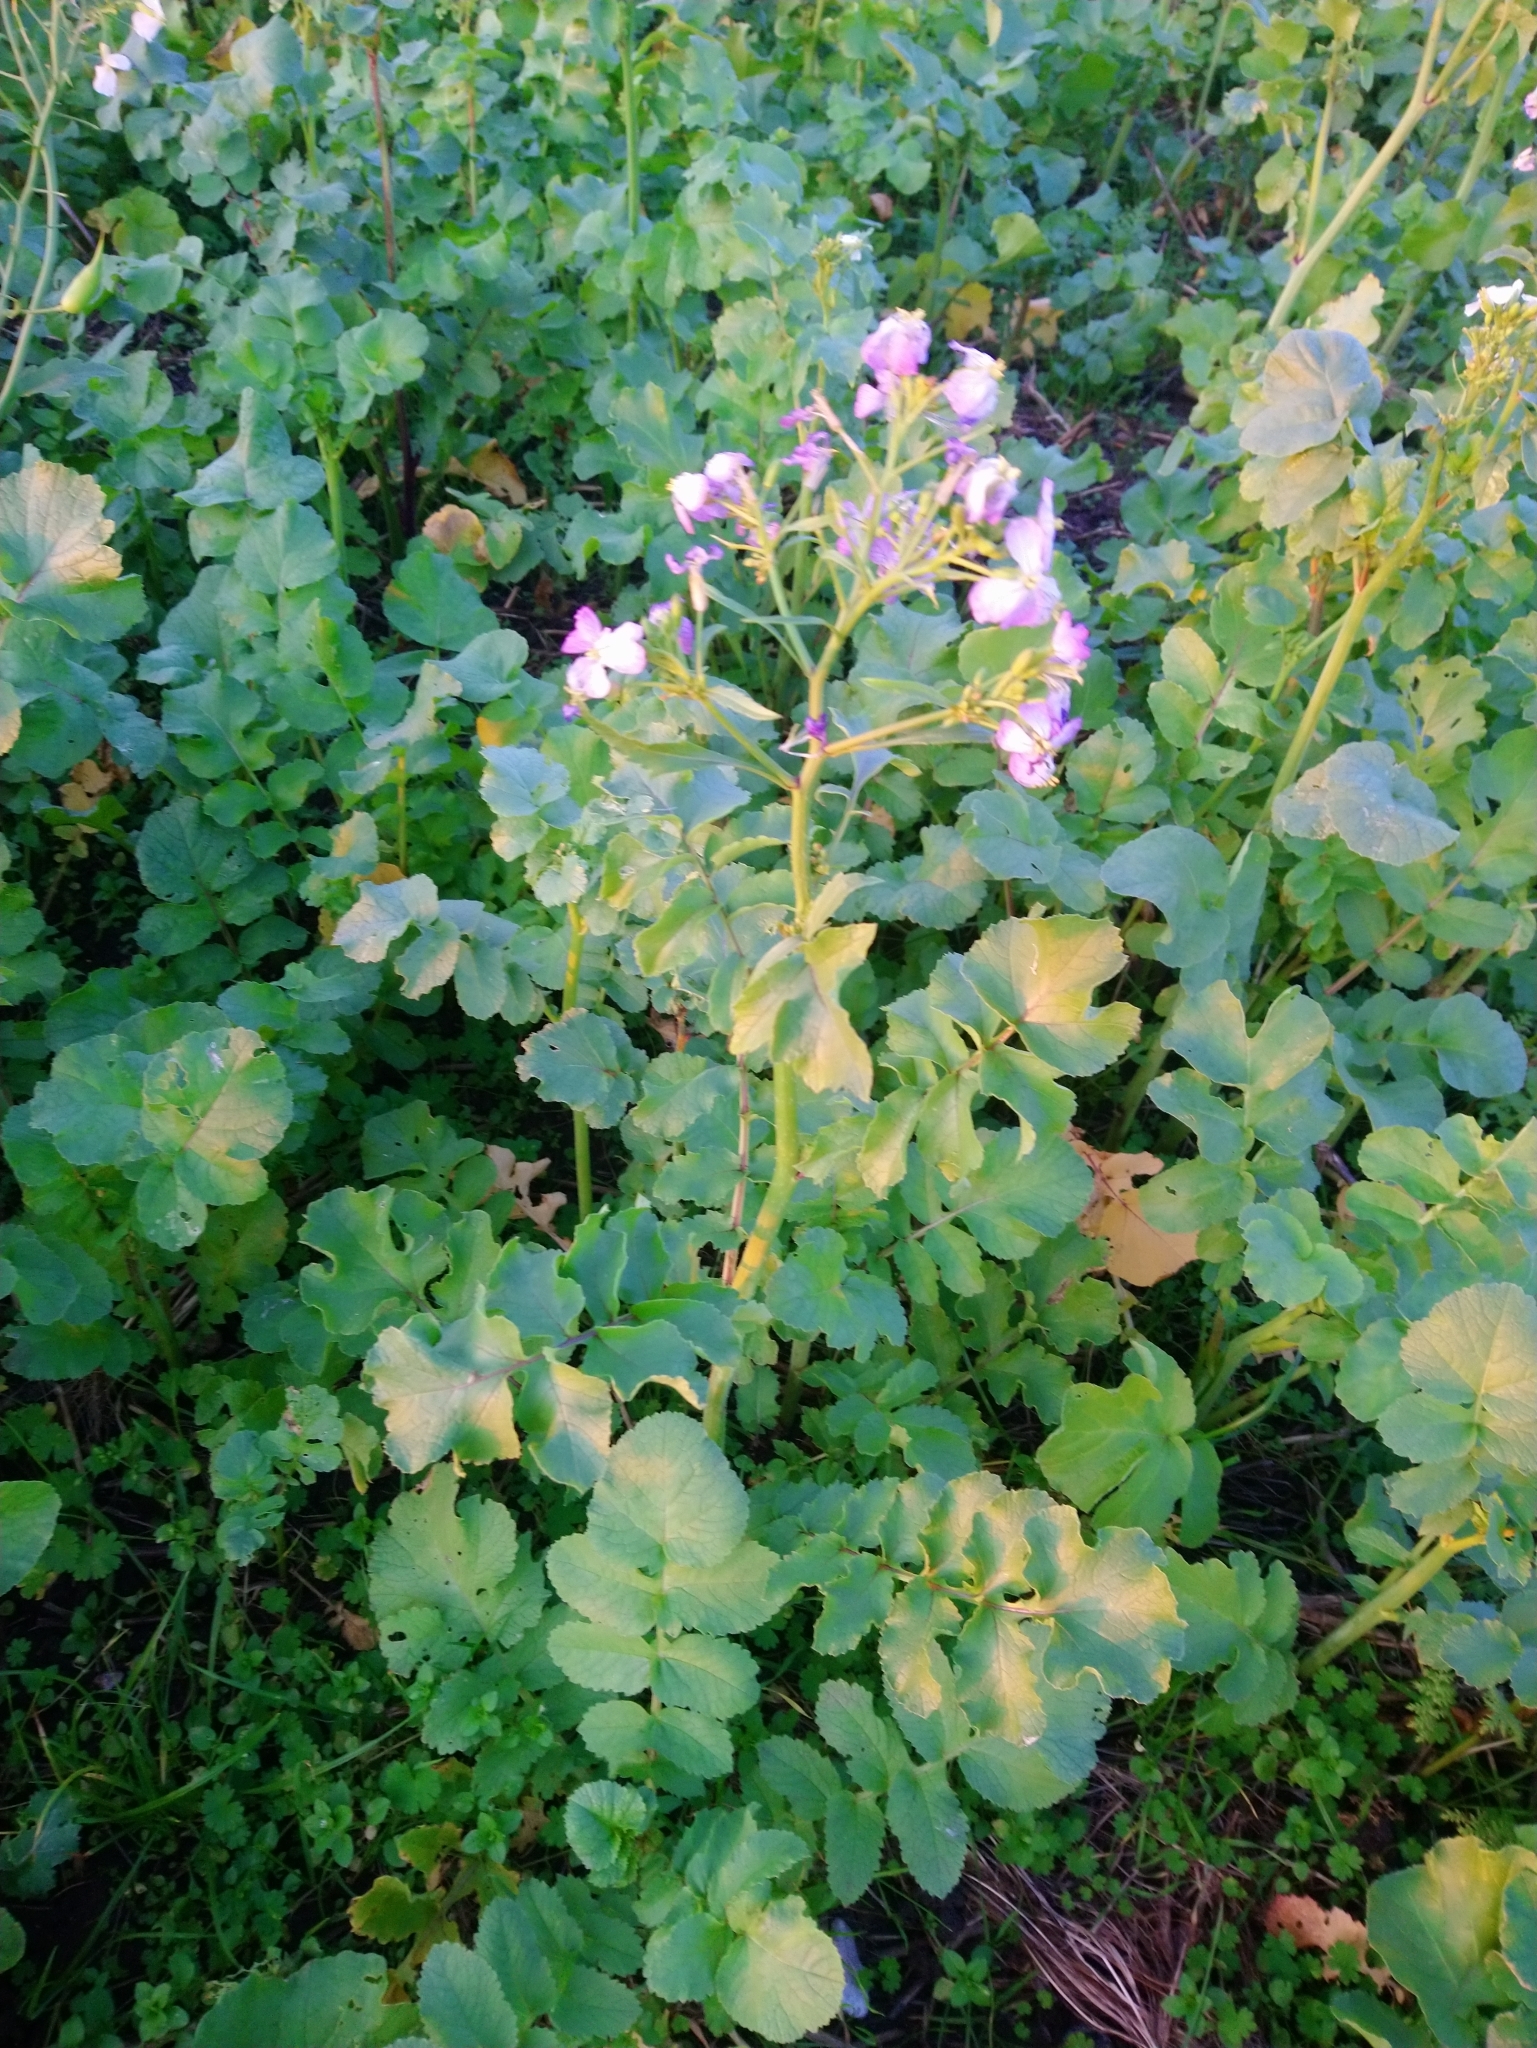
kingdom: Plantae
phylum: Tracheophyta
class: Magnoliopsida
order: Brassicales
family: Brassicaceae
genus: Raphanus
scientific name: Raphanus sativus
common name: Cultivated radish
